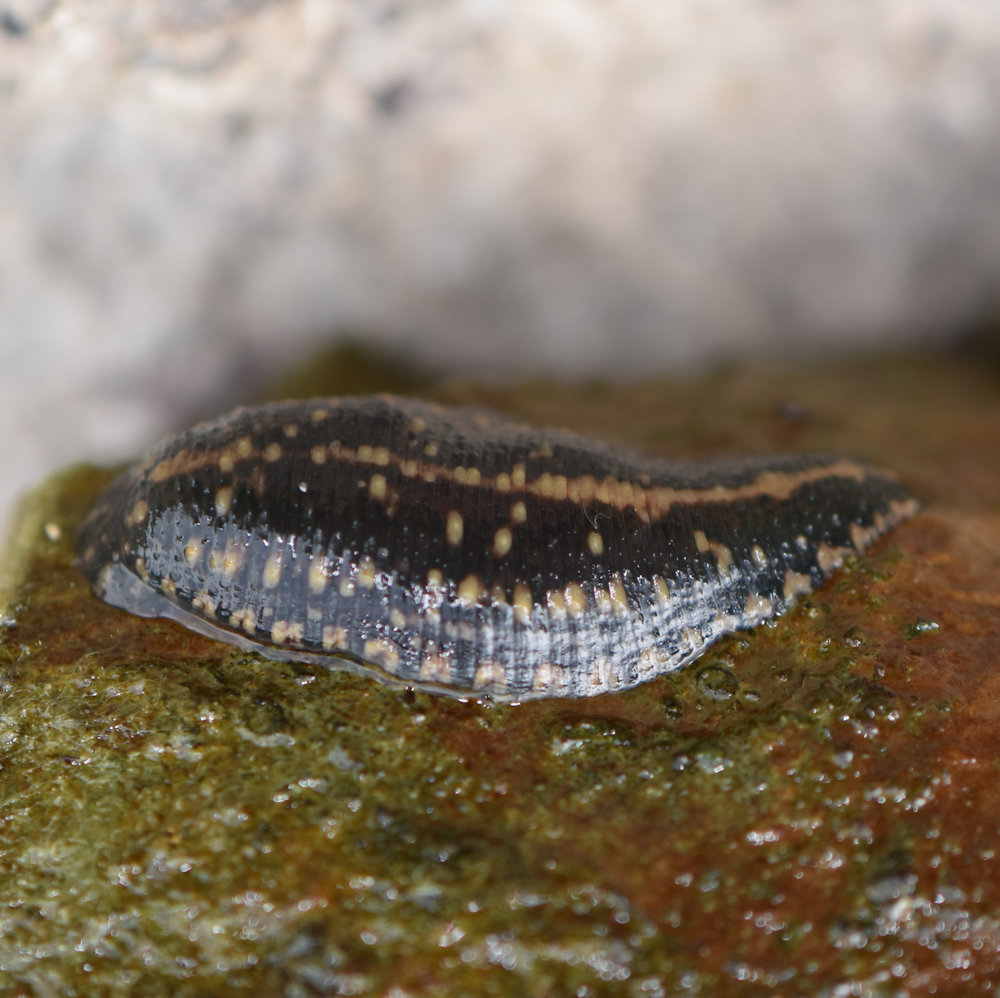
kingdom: Animalia
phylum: Annelida
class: Clitellata
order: Rhynchobdellida
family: Glossiphoniidae
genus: Placobdella
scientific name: Placobdella parasitica
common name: Smooth turtle leech
